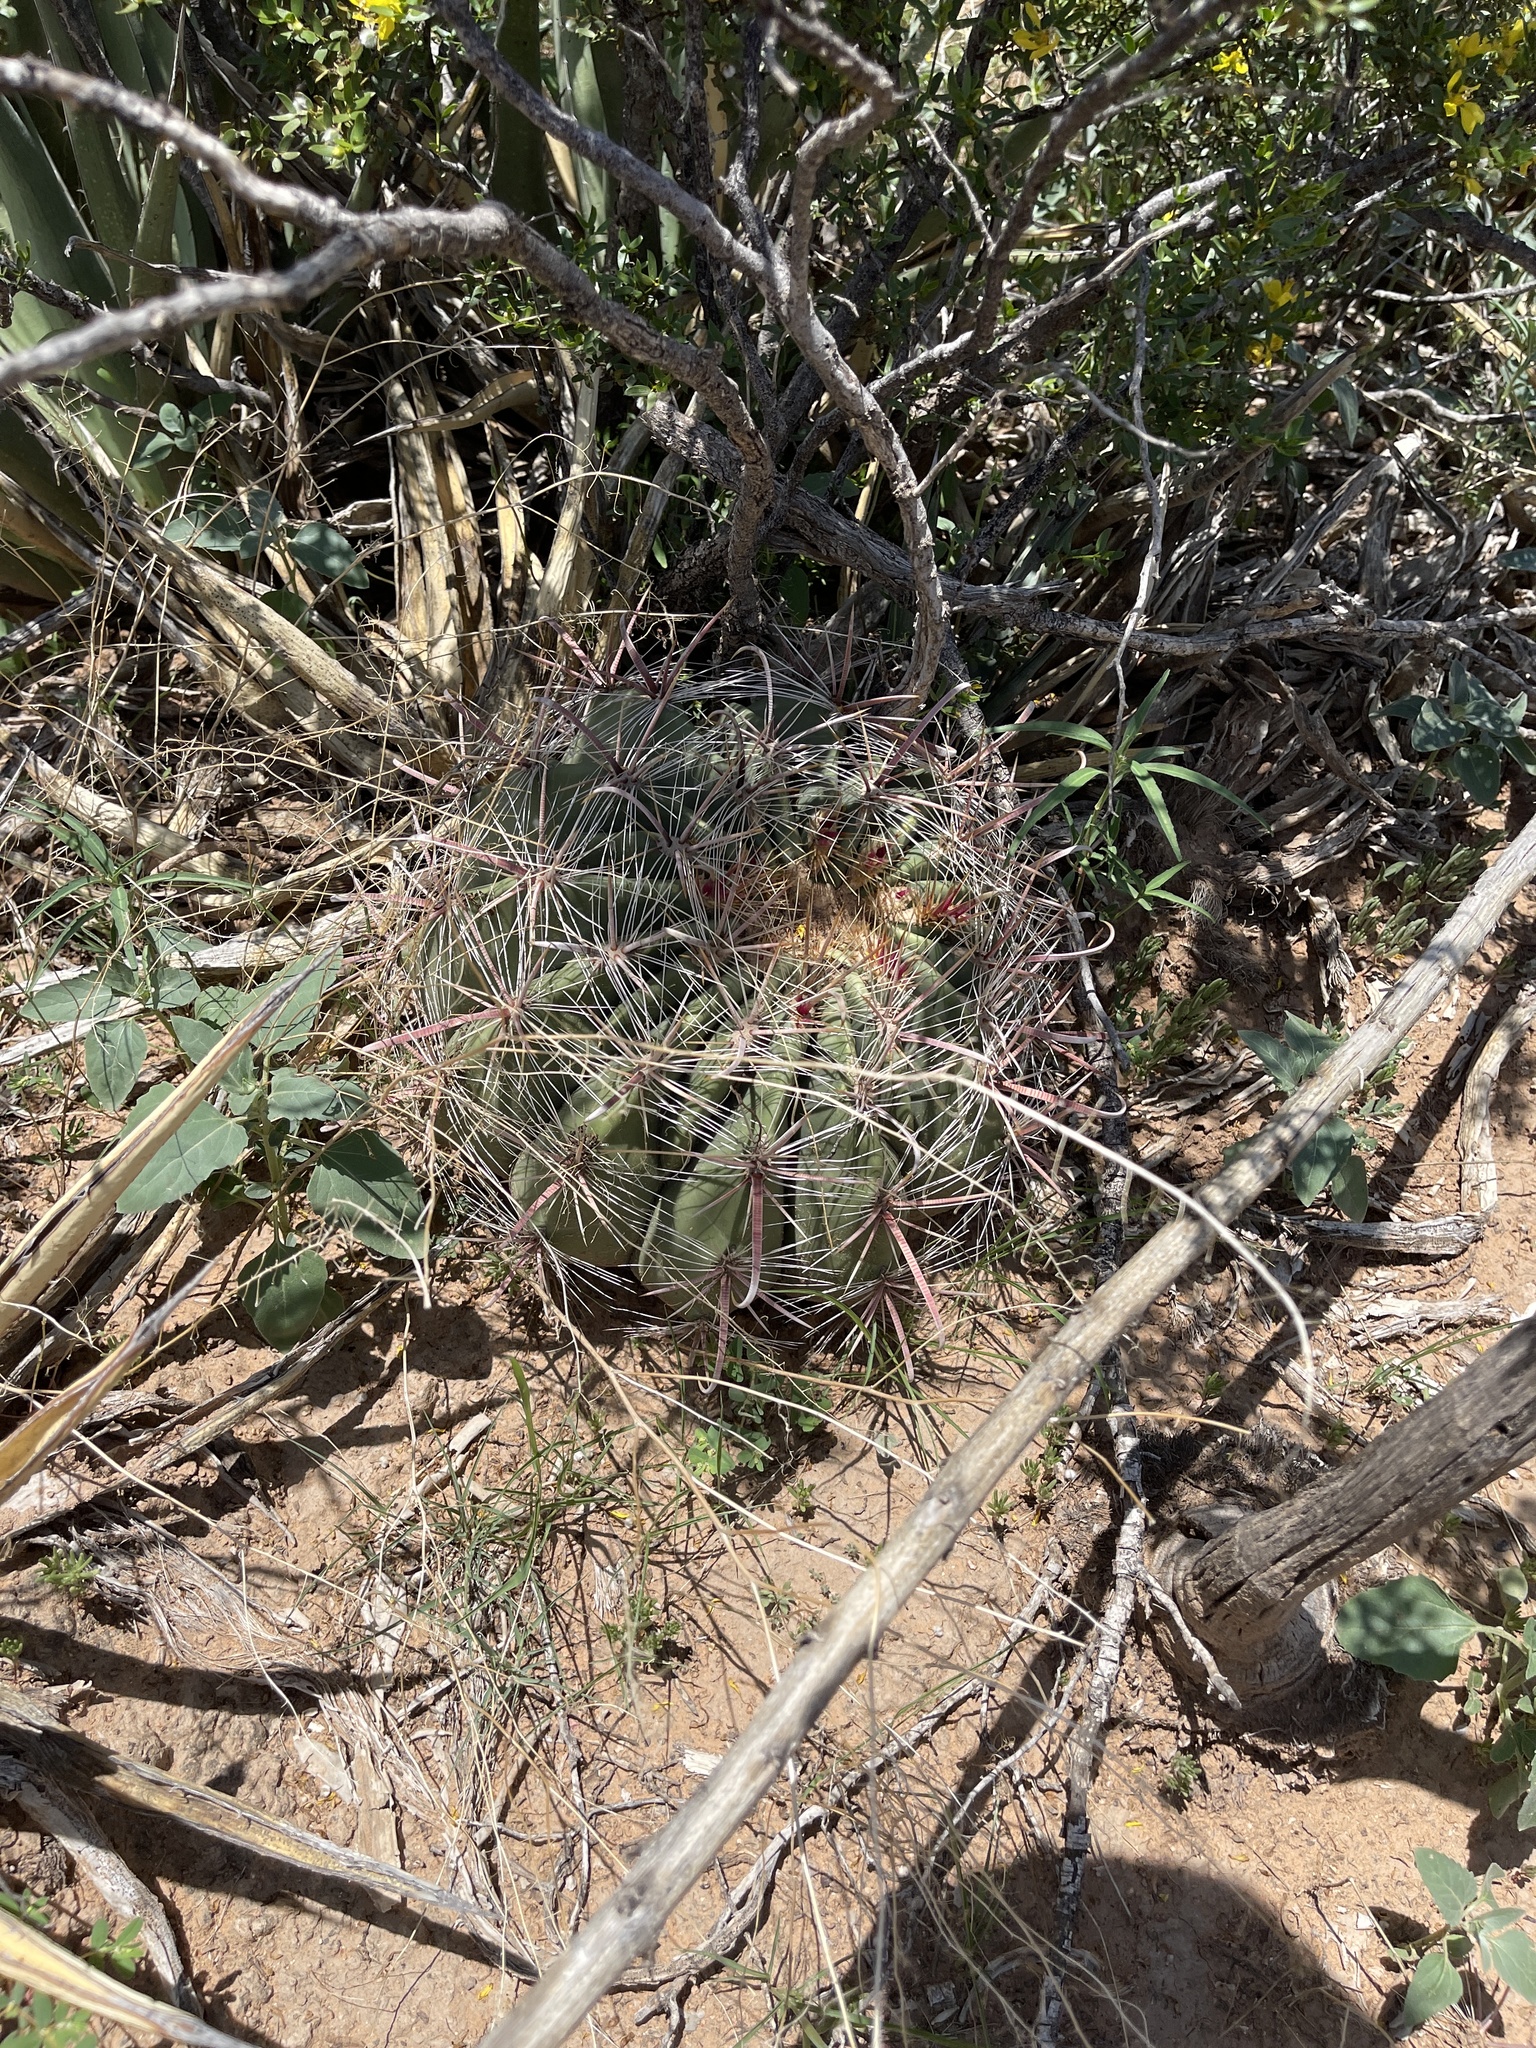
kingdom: Plantae
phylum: Tracheophyta
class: Magnoliopsida
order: Caryophyllales
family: Cactaceae
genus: Ferocactus
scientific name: Ferocactus wislizeni
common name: Candy barrel cactus
